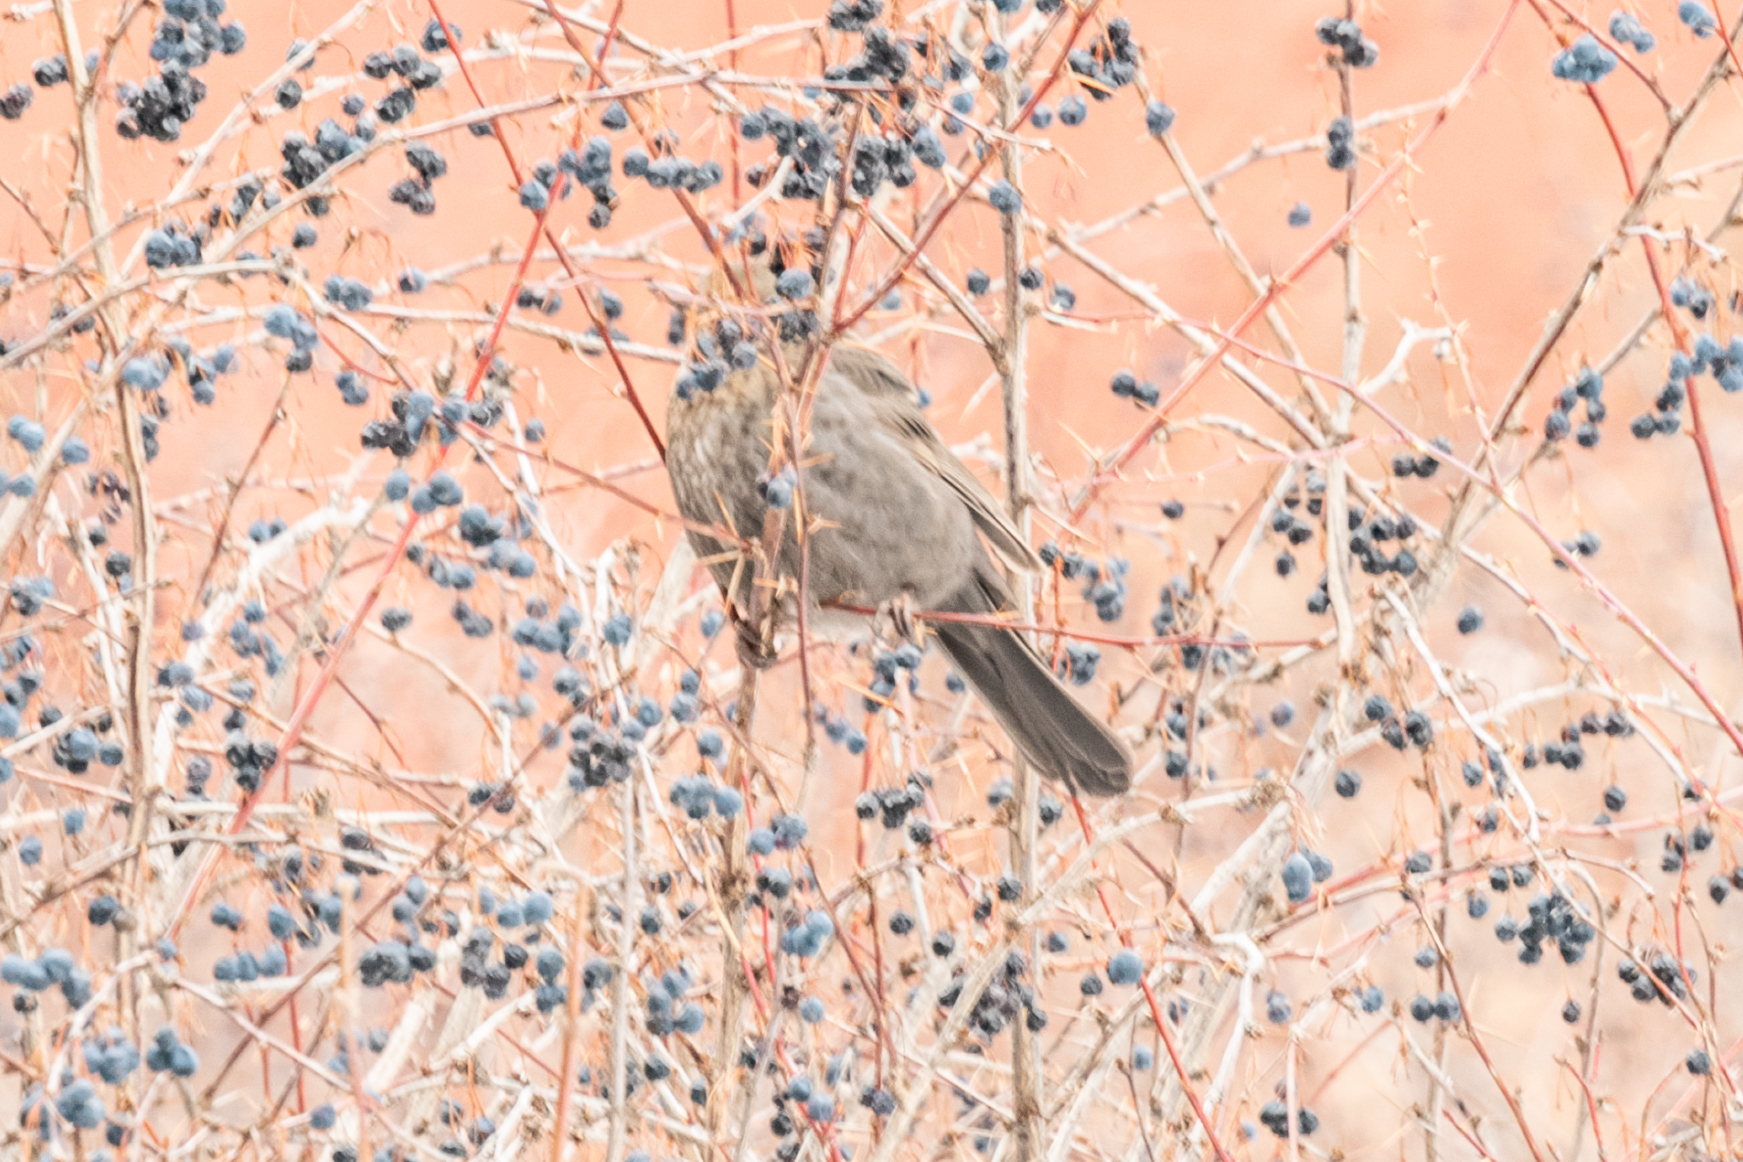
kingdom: Animalia
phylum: Chordata
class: Aves
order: Passeriformes
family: Turdidae
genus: Turdus
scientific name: Turdus merula
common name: Common blackbird
